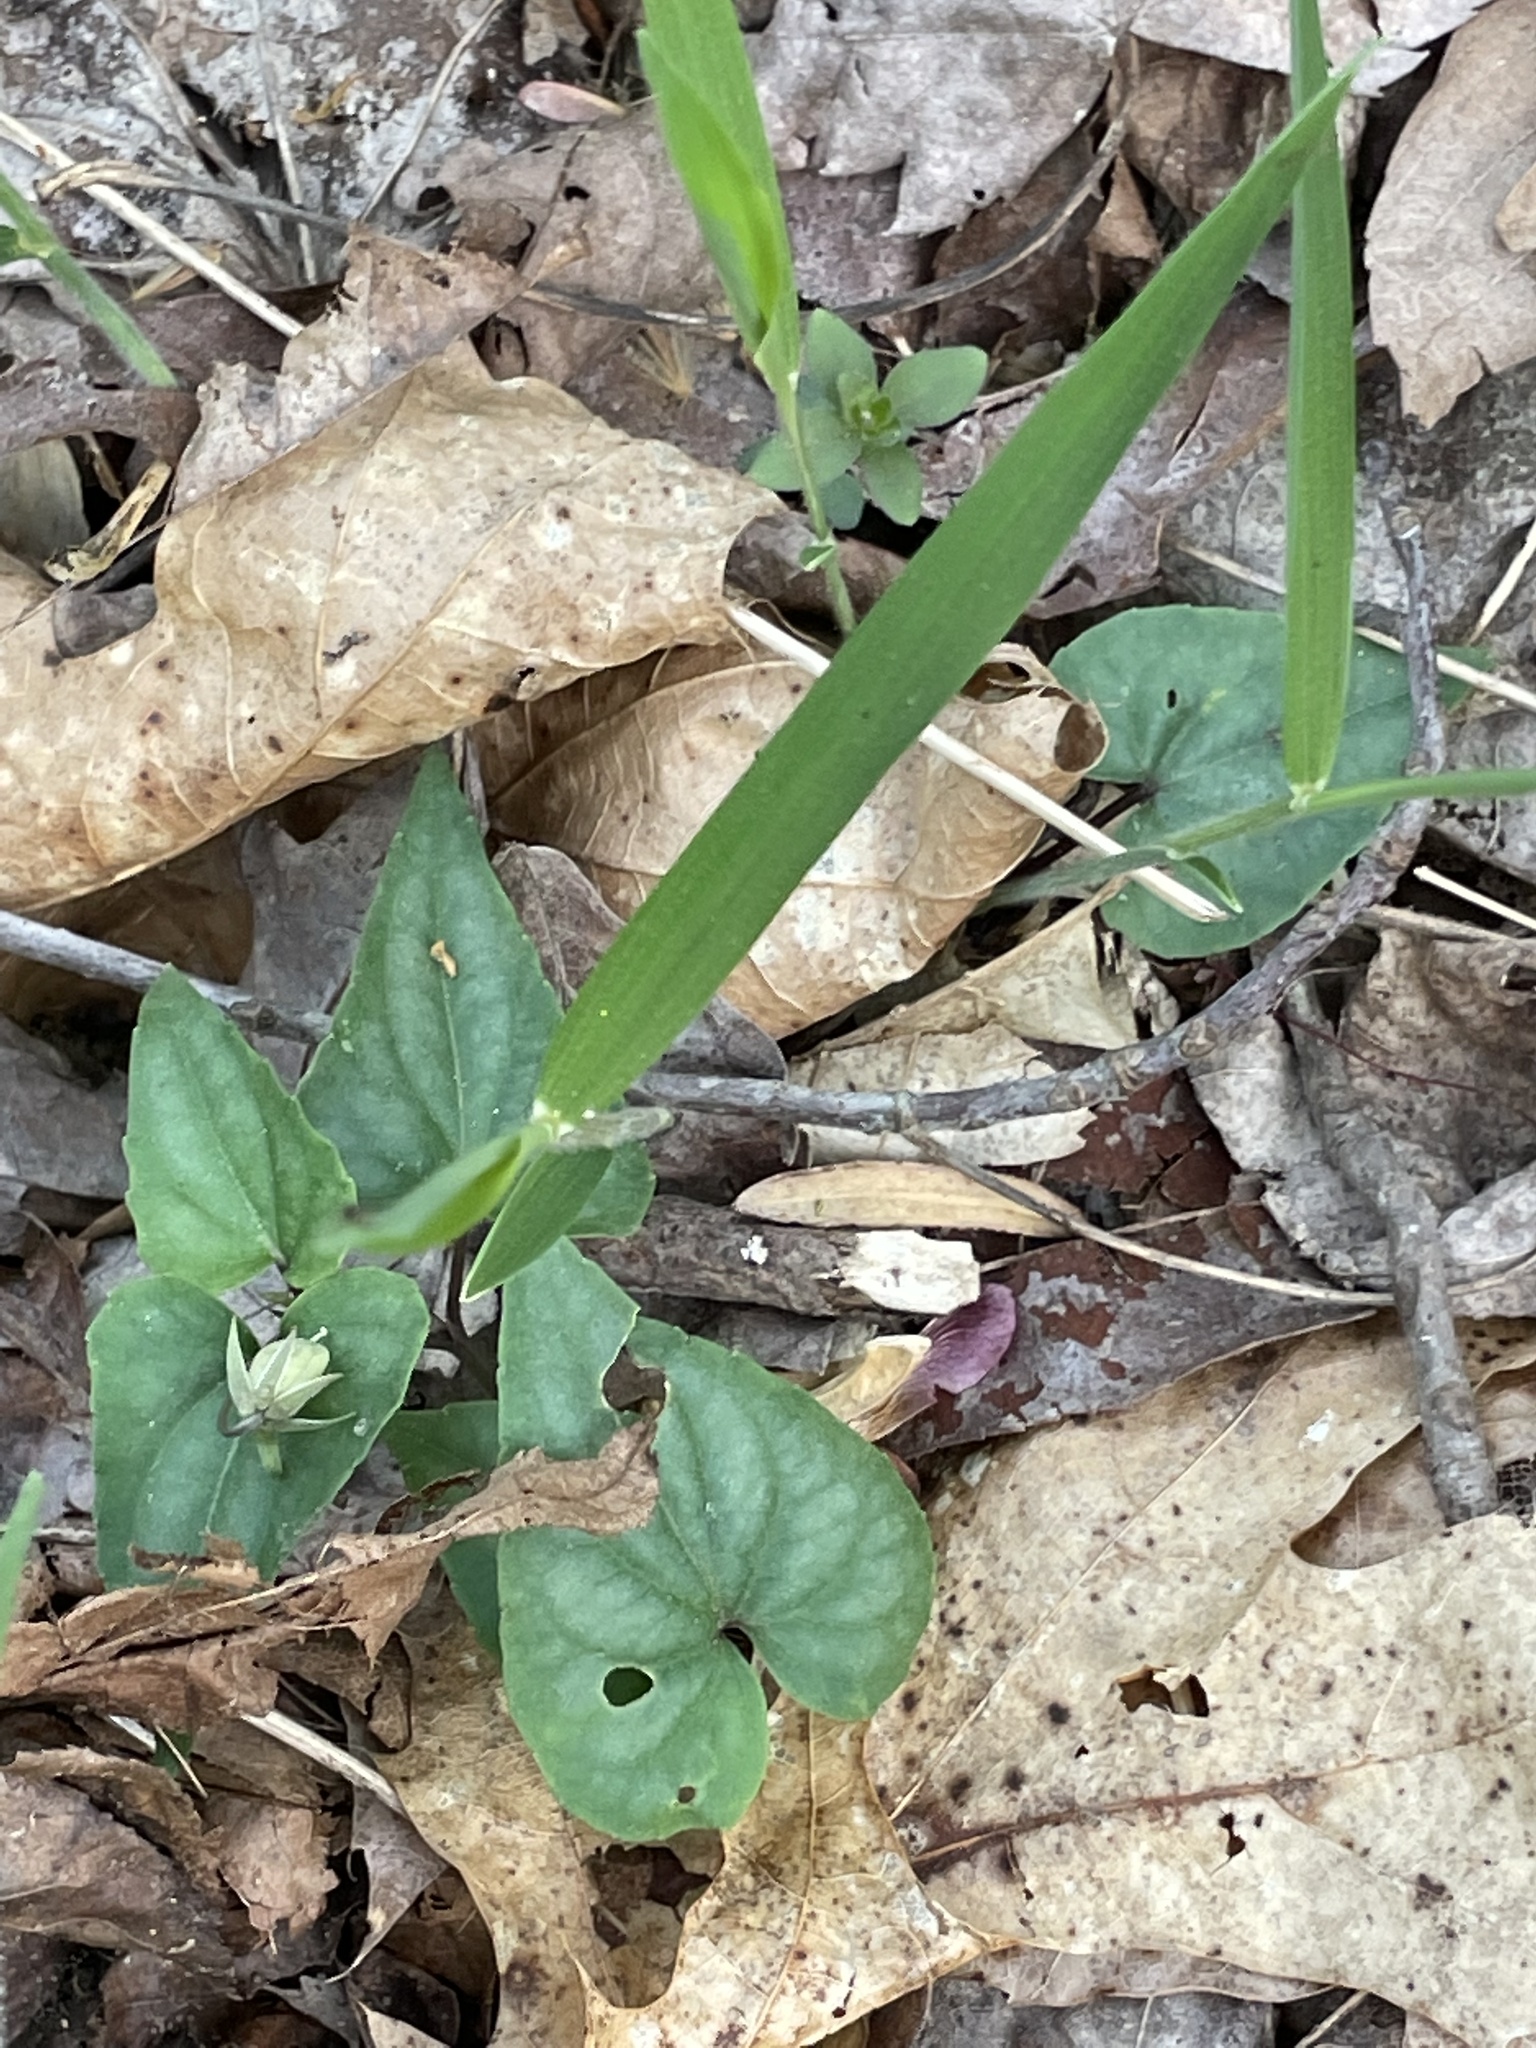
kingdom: Plantae
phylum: Tracheophyta
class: Magnoliopsida
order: Malpighiales
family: Violaceae
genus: Viola
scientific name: Viola hastata
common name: Spear-leaf violet
